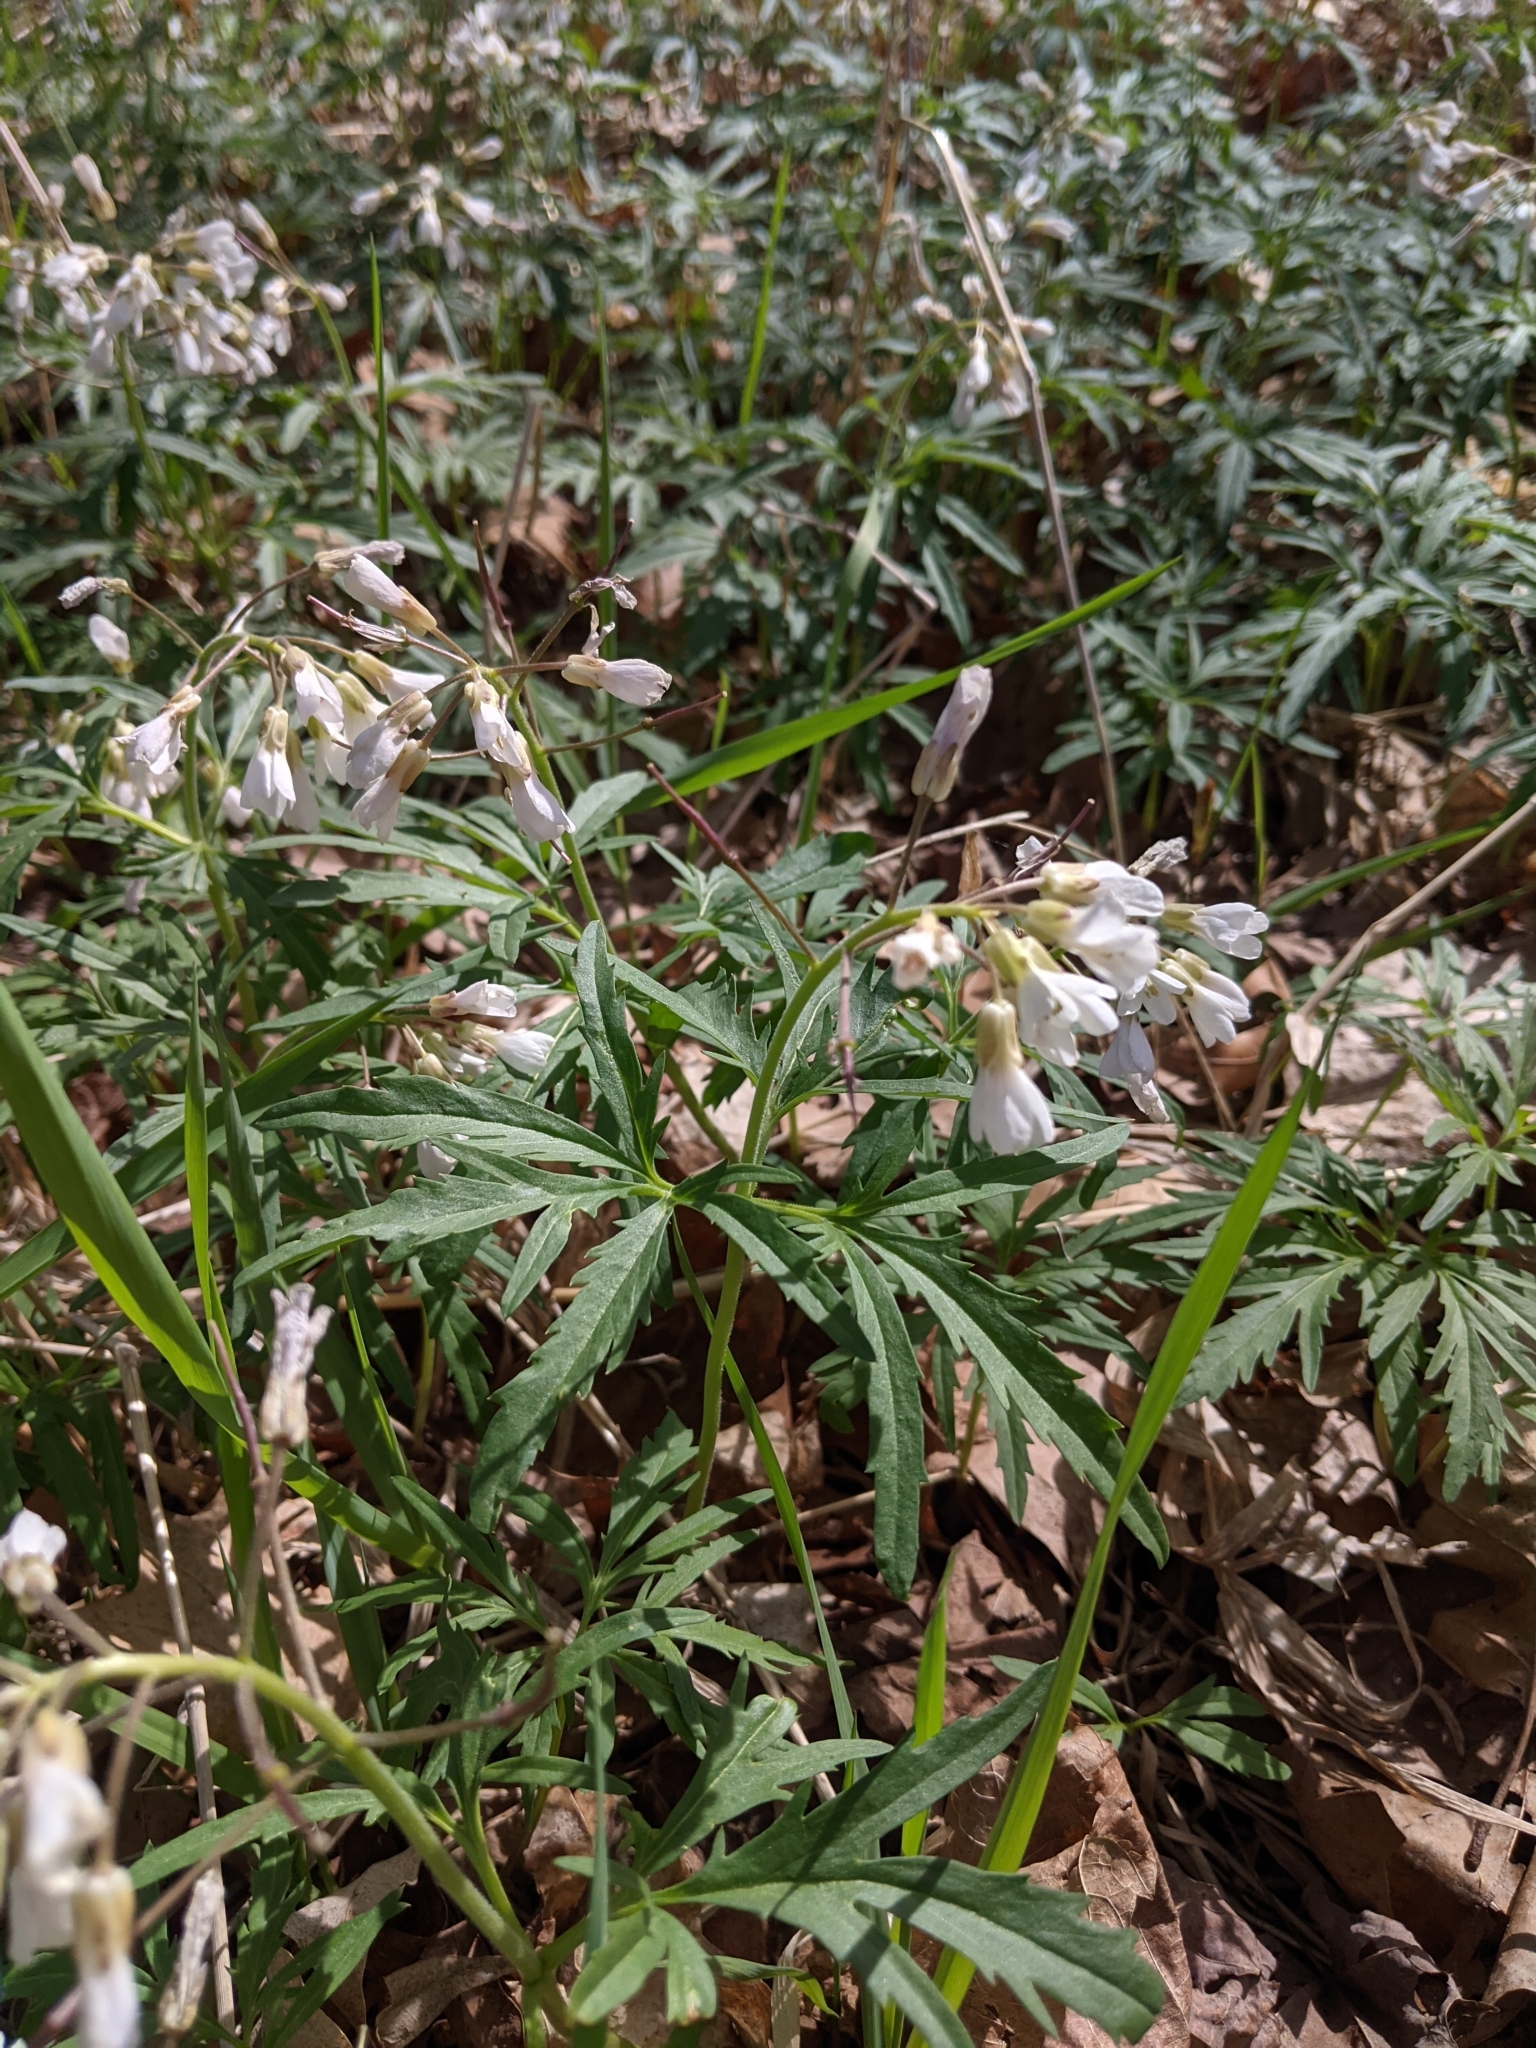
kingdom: Plantae
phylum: Tracheophyta
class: Magnoliopsida
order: Brassicales
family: Brassicaceae
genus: Cardamine
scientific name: Cardamine concatenata
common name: Cut-leaf toothcup
